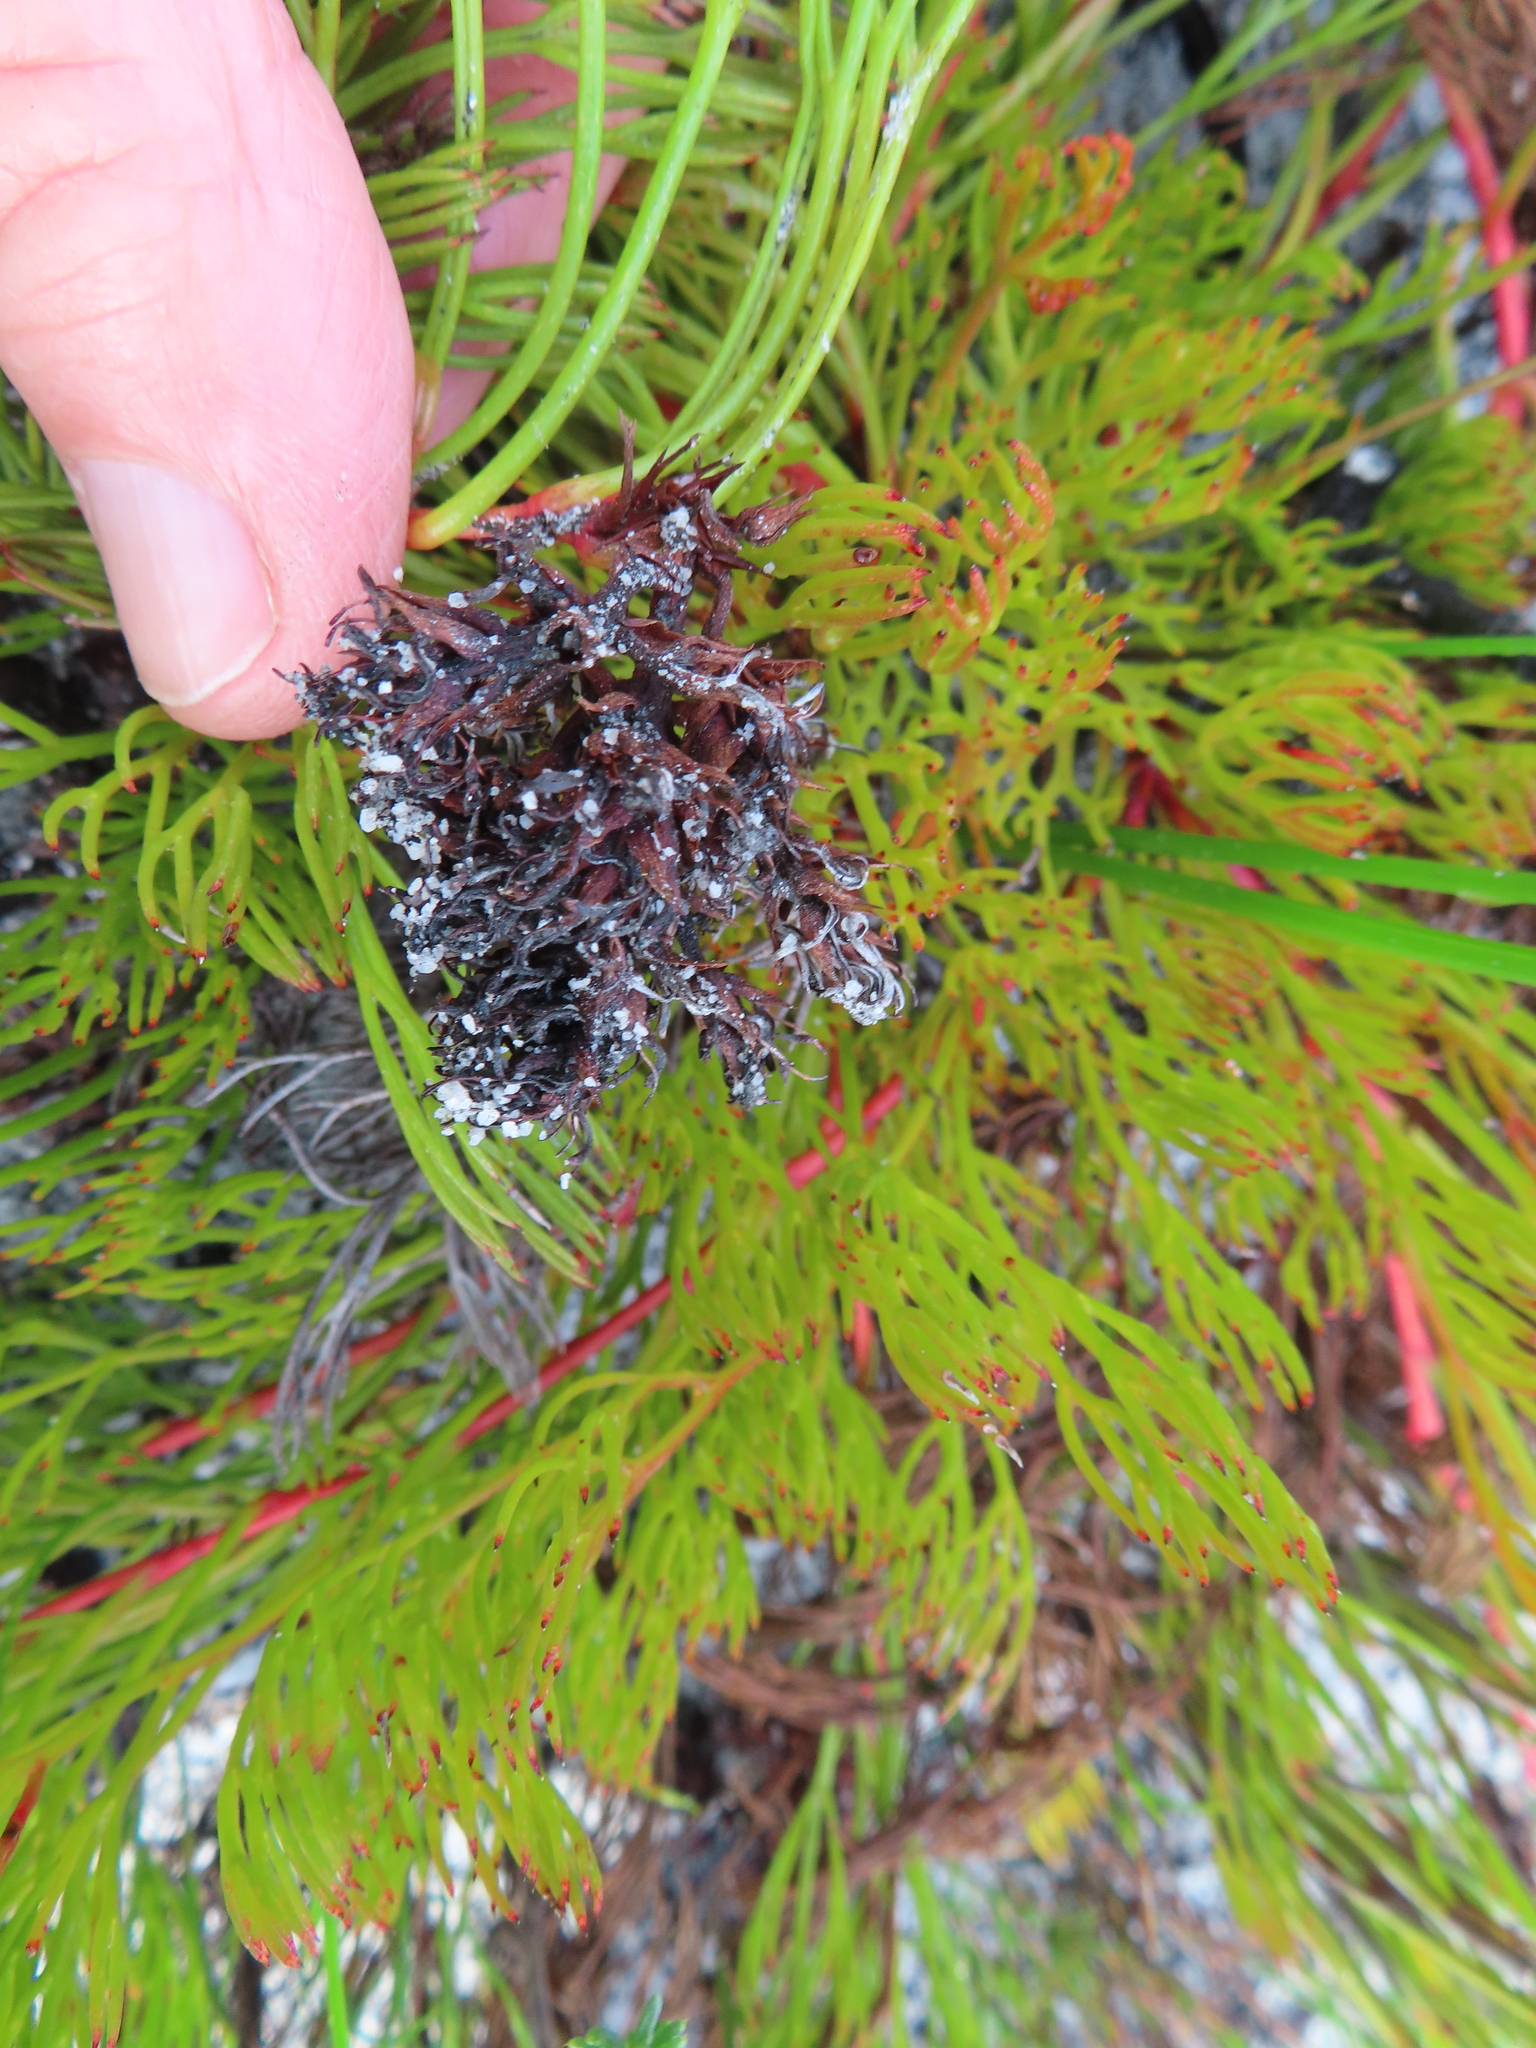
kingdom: Plantae
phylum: Tracheophyta
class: Magnoliopsida
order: Proteales
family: Proteaceae
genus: Serruria
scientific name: Serruria rubricaulis
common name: Red-stem spiderhead
